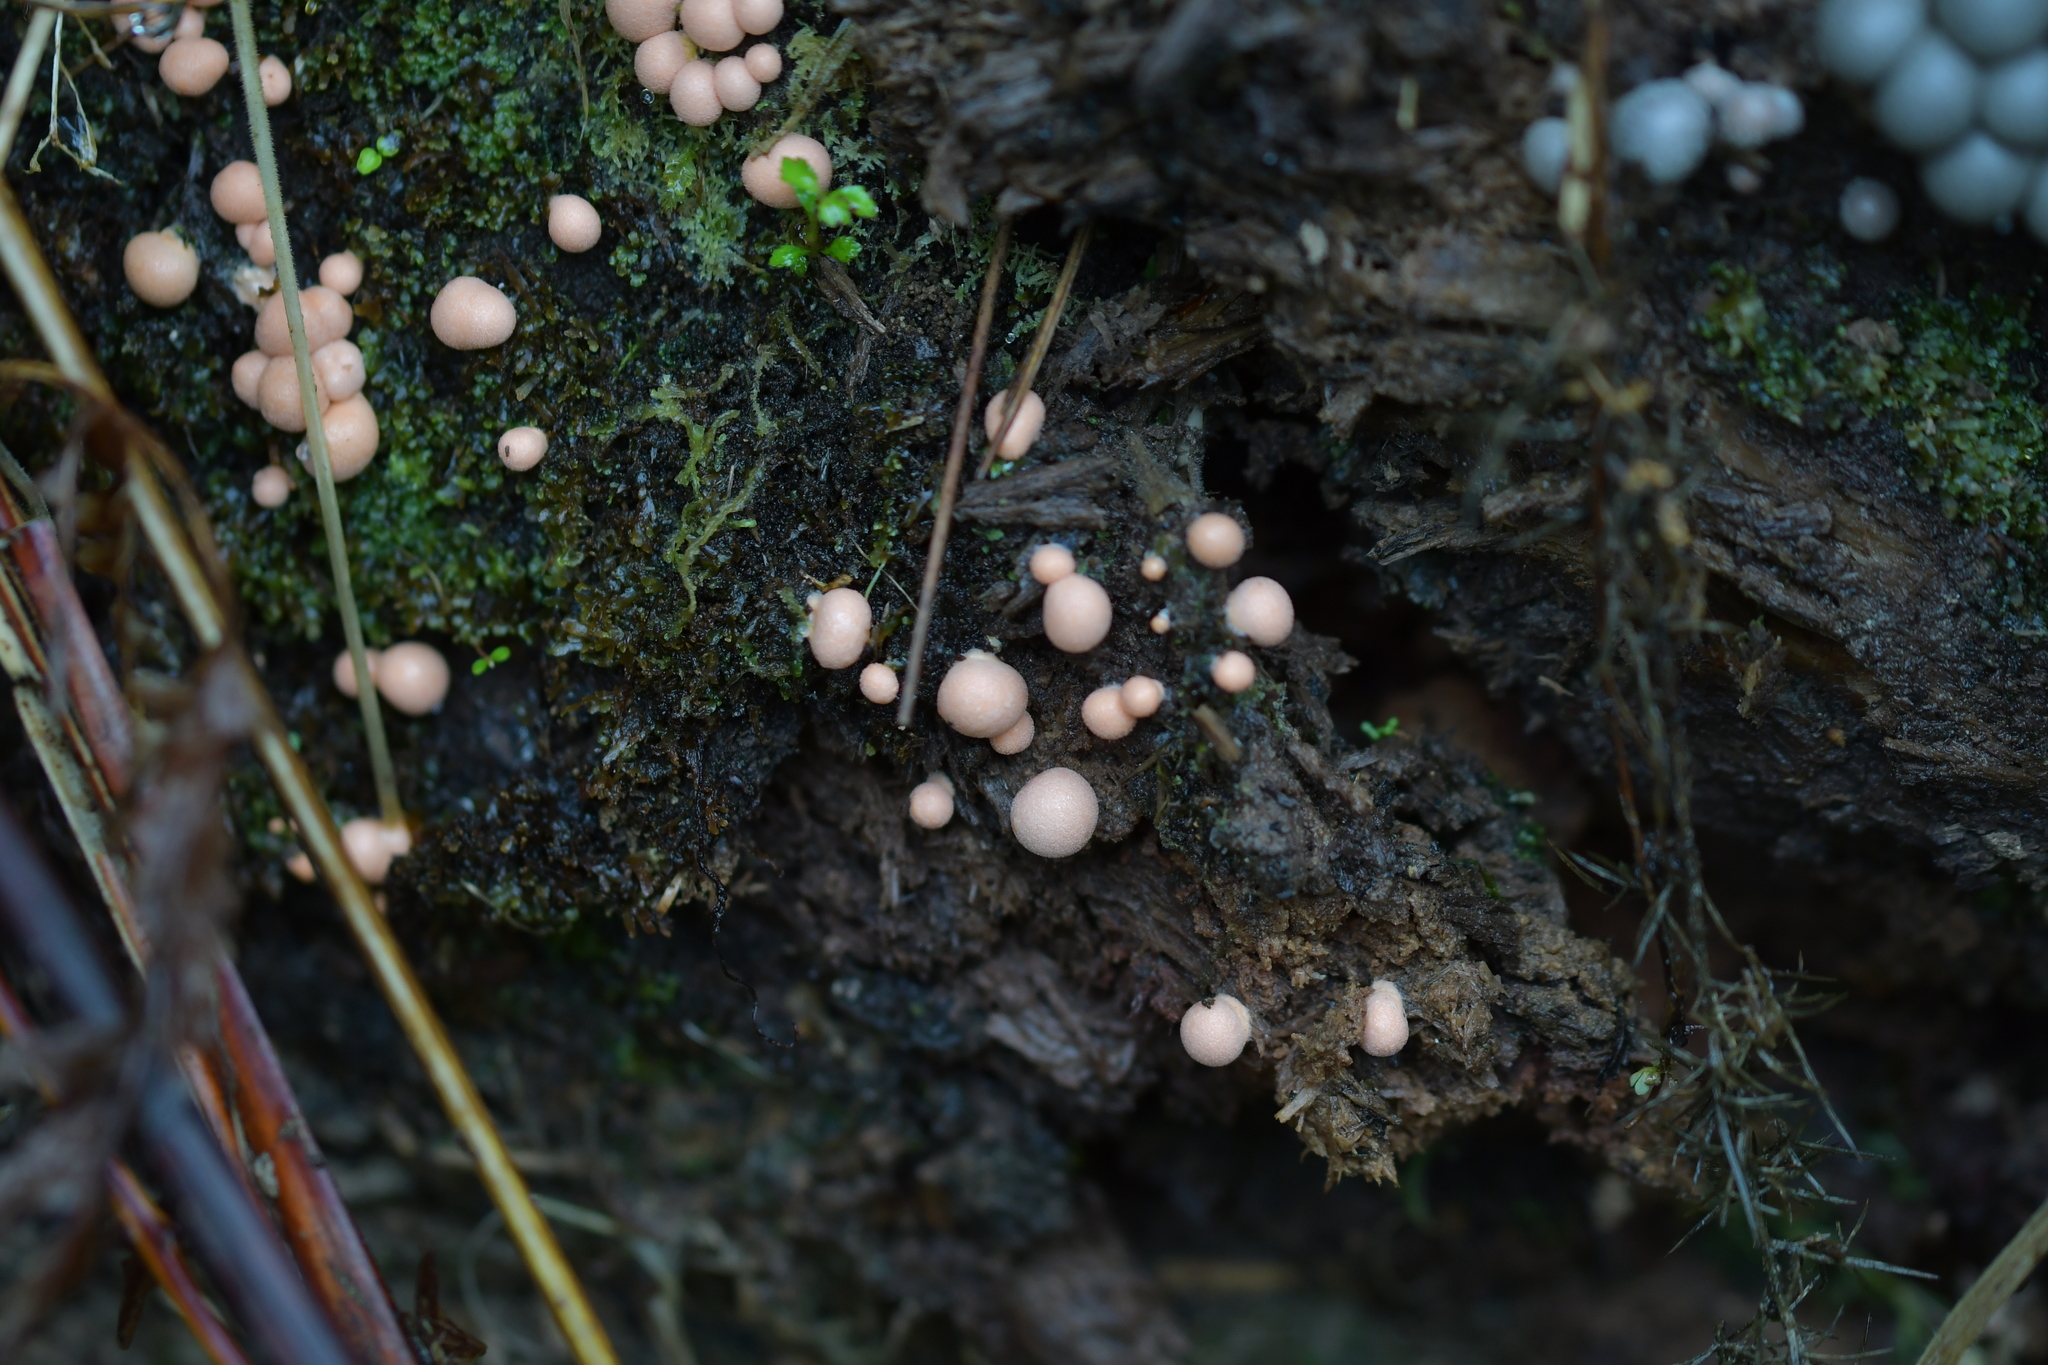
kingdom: Protozoa
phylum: Mycetozoa
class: Myxomycetes
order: Cribrariales
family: Tubiferaceae
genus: Lycogala
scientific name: Lycogala epidendrum
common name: Wolf's milk
